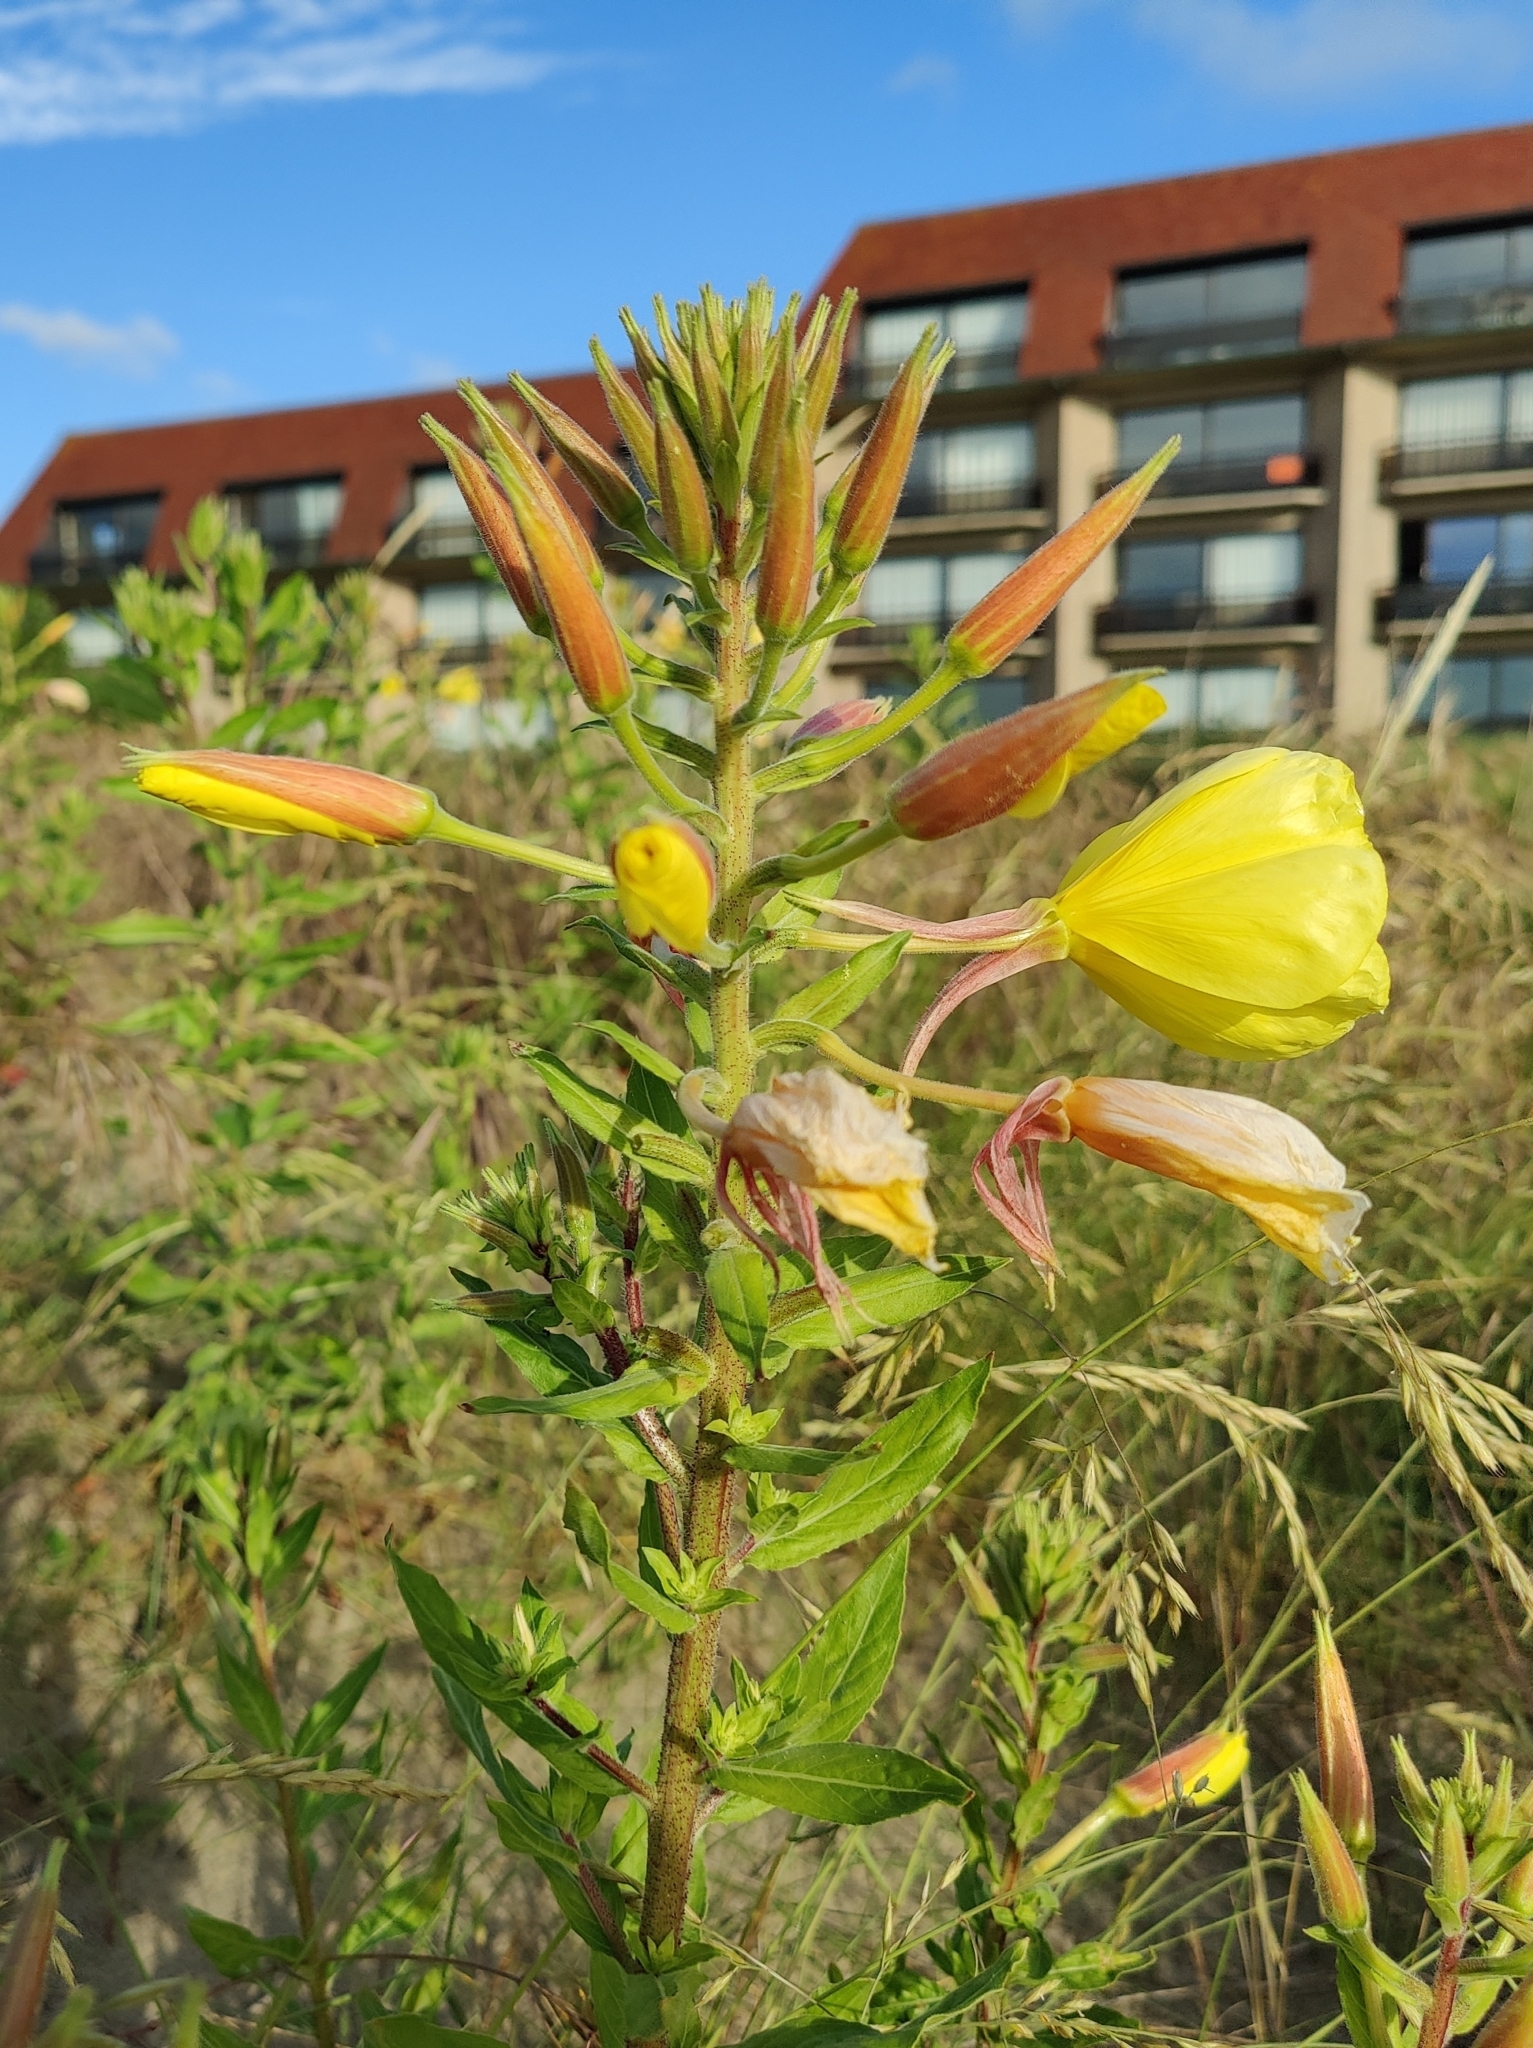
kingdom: Plantae
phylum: Tracheophyta
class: Magnoliopsida
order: Myrtales
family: Onagraceae
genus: Oenothera
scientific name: Oenothera glazioviana
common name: Large-flowered evening-primrose
